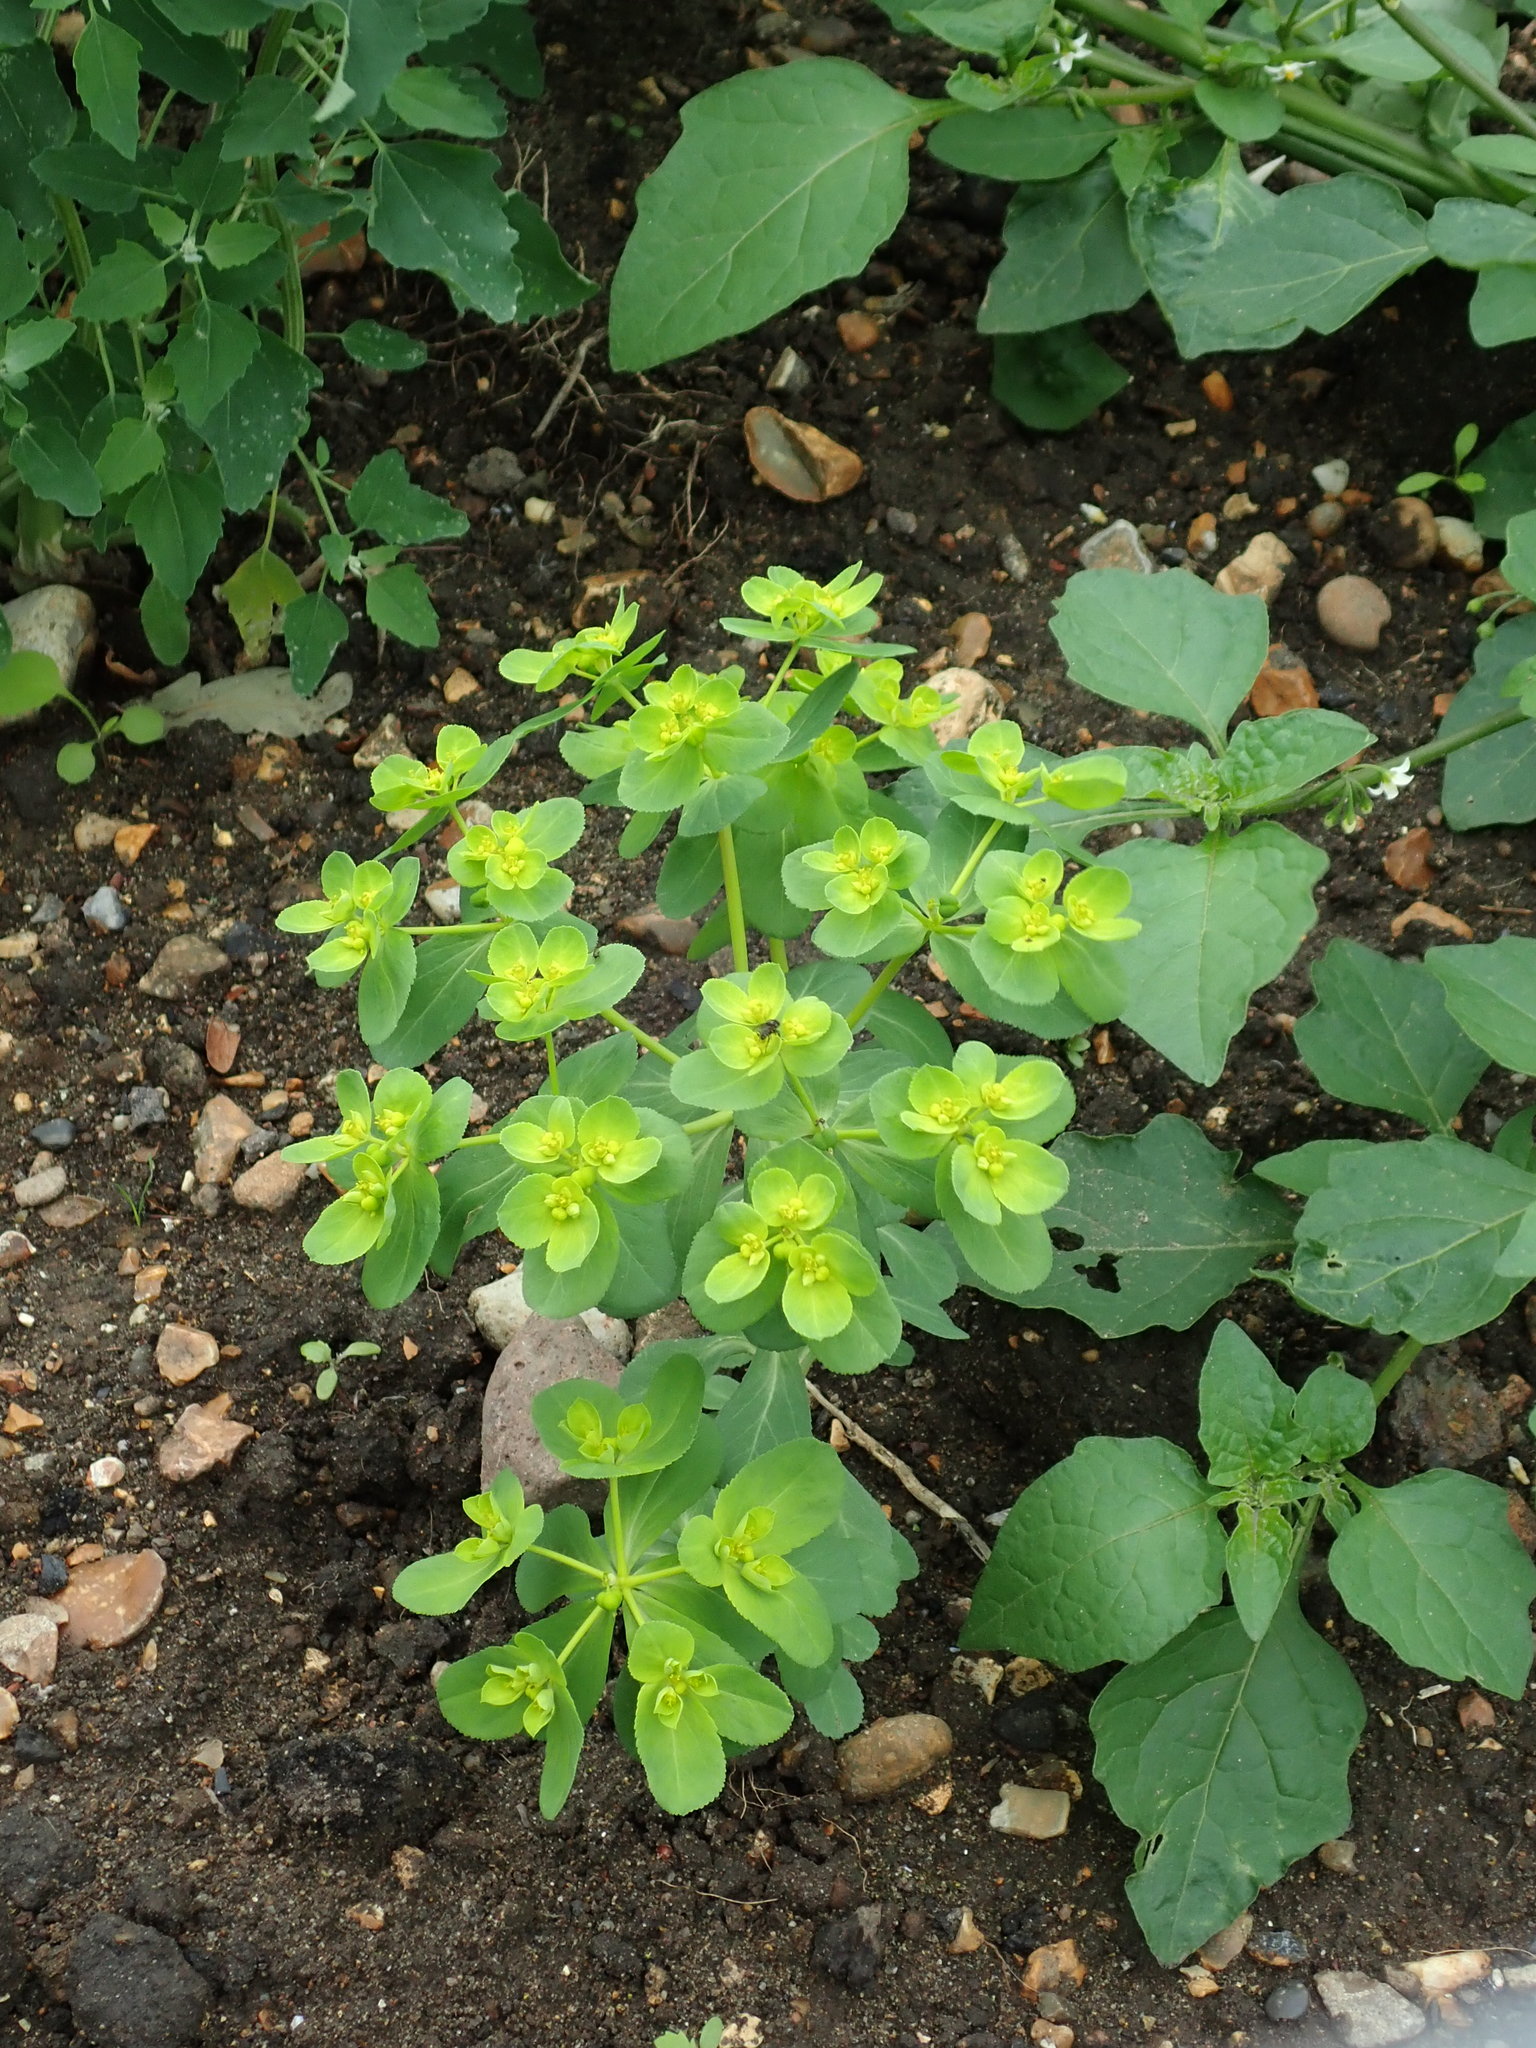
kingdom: Plantae
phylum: Tracheophyta
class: Magnoliopsida
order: Malpighiales
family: Euphorbiaceae
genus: Euphorbia
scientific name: Euphorbia helioscopia
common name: Sun spurge
